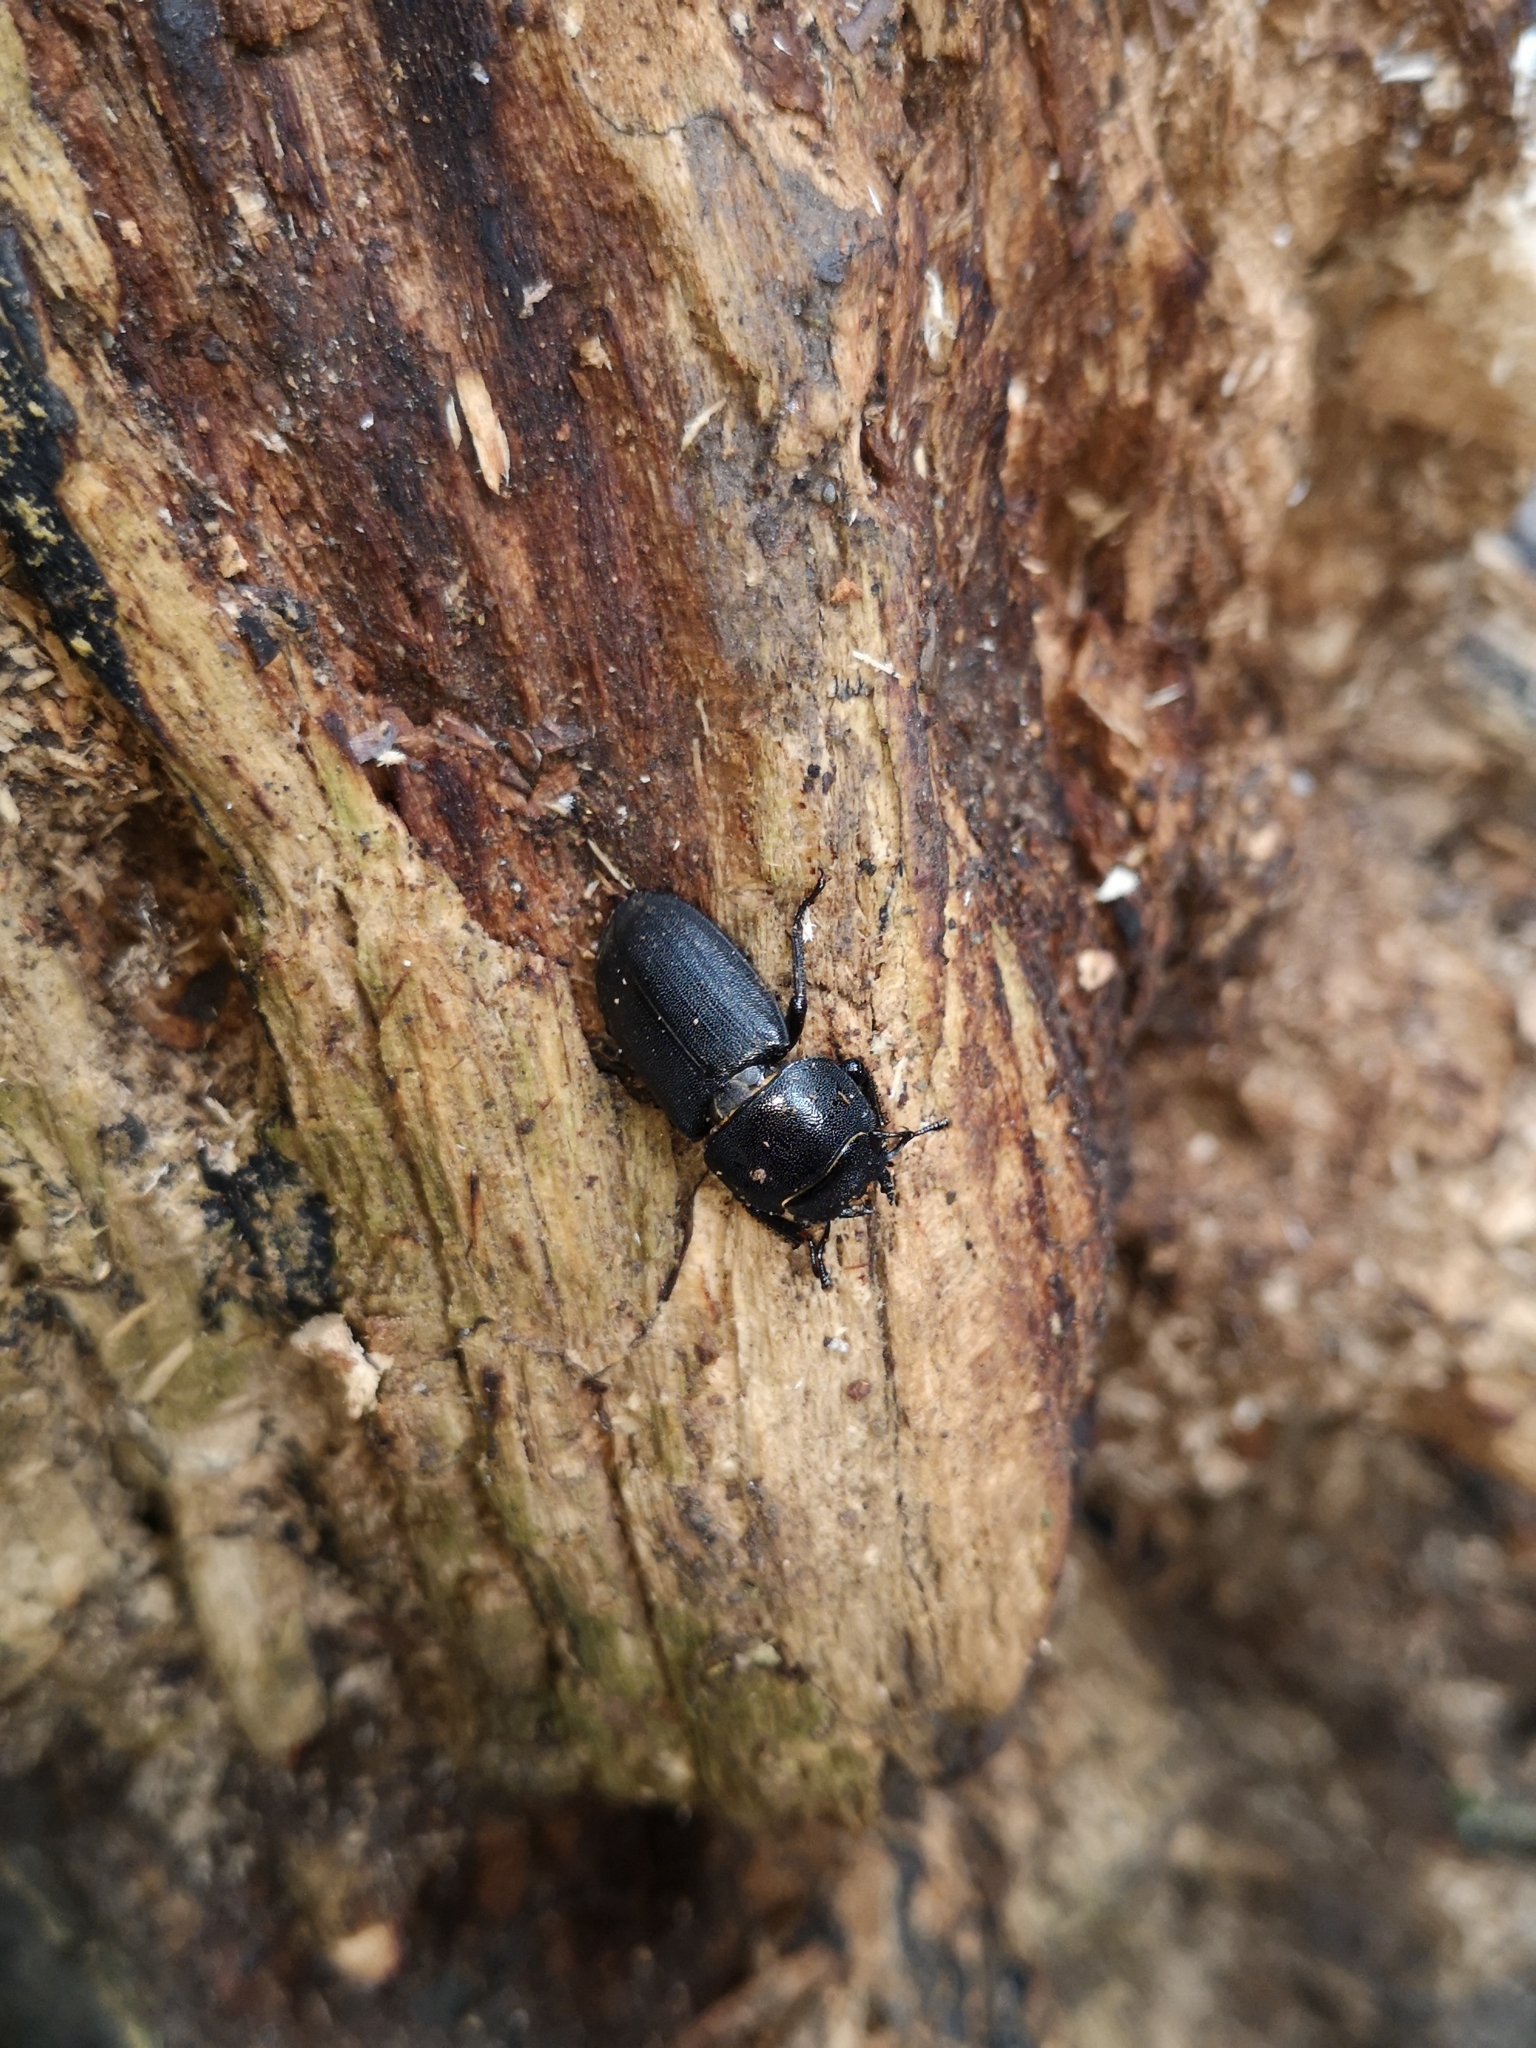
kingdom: Animalia
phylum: Arthropoda
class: Insecta
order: Coleoptera
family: Lucanidae
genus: Dorcus
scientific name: Dorcus parallelipipedus
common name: Lesser stag beetle
